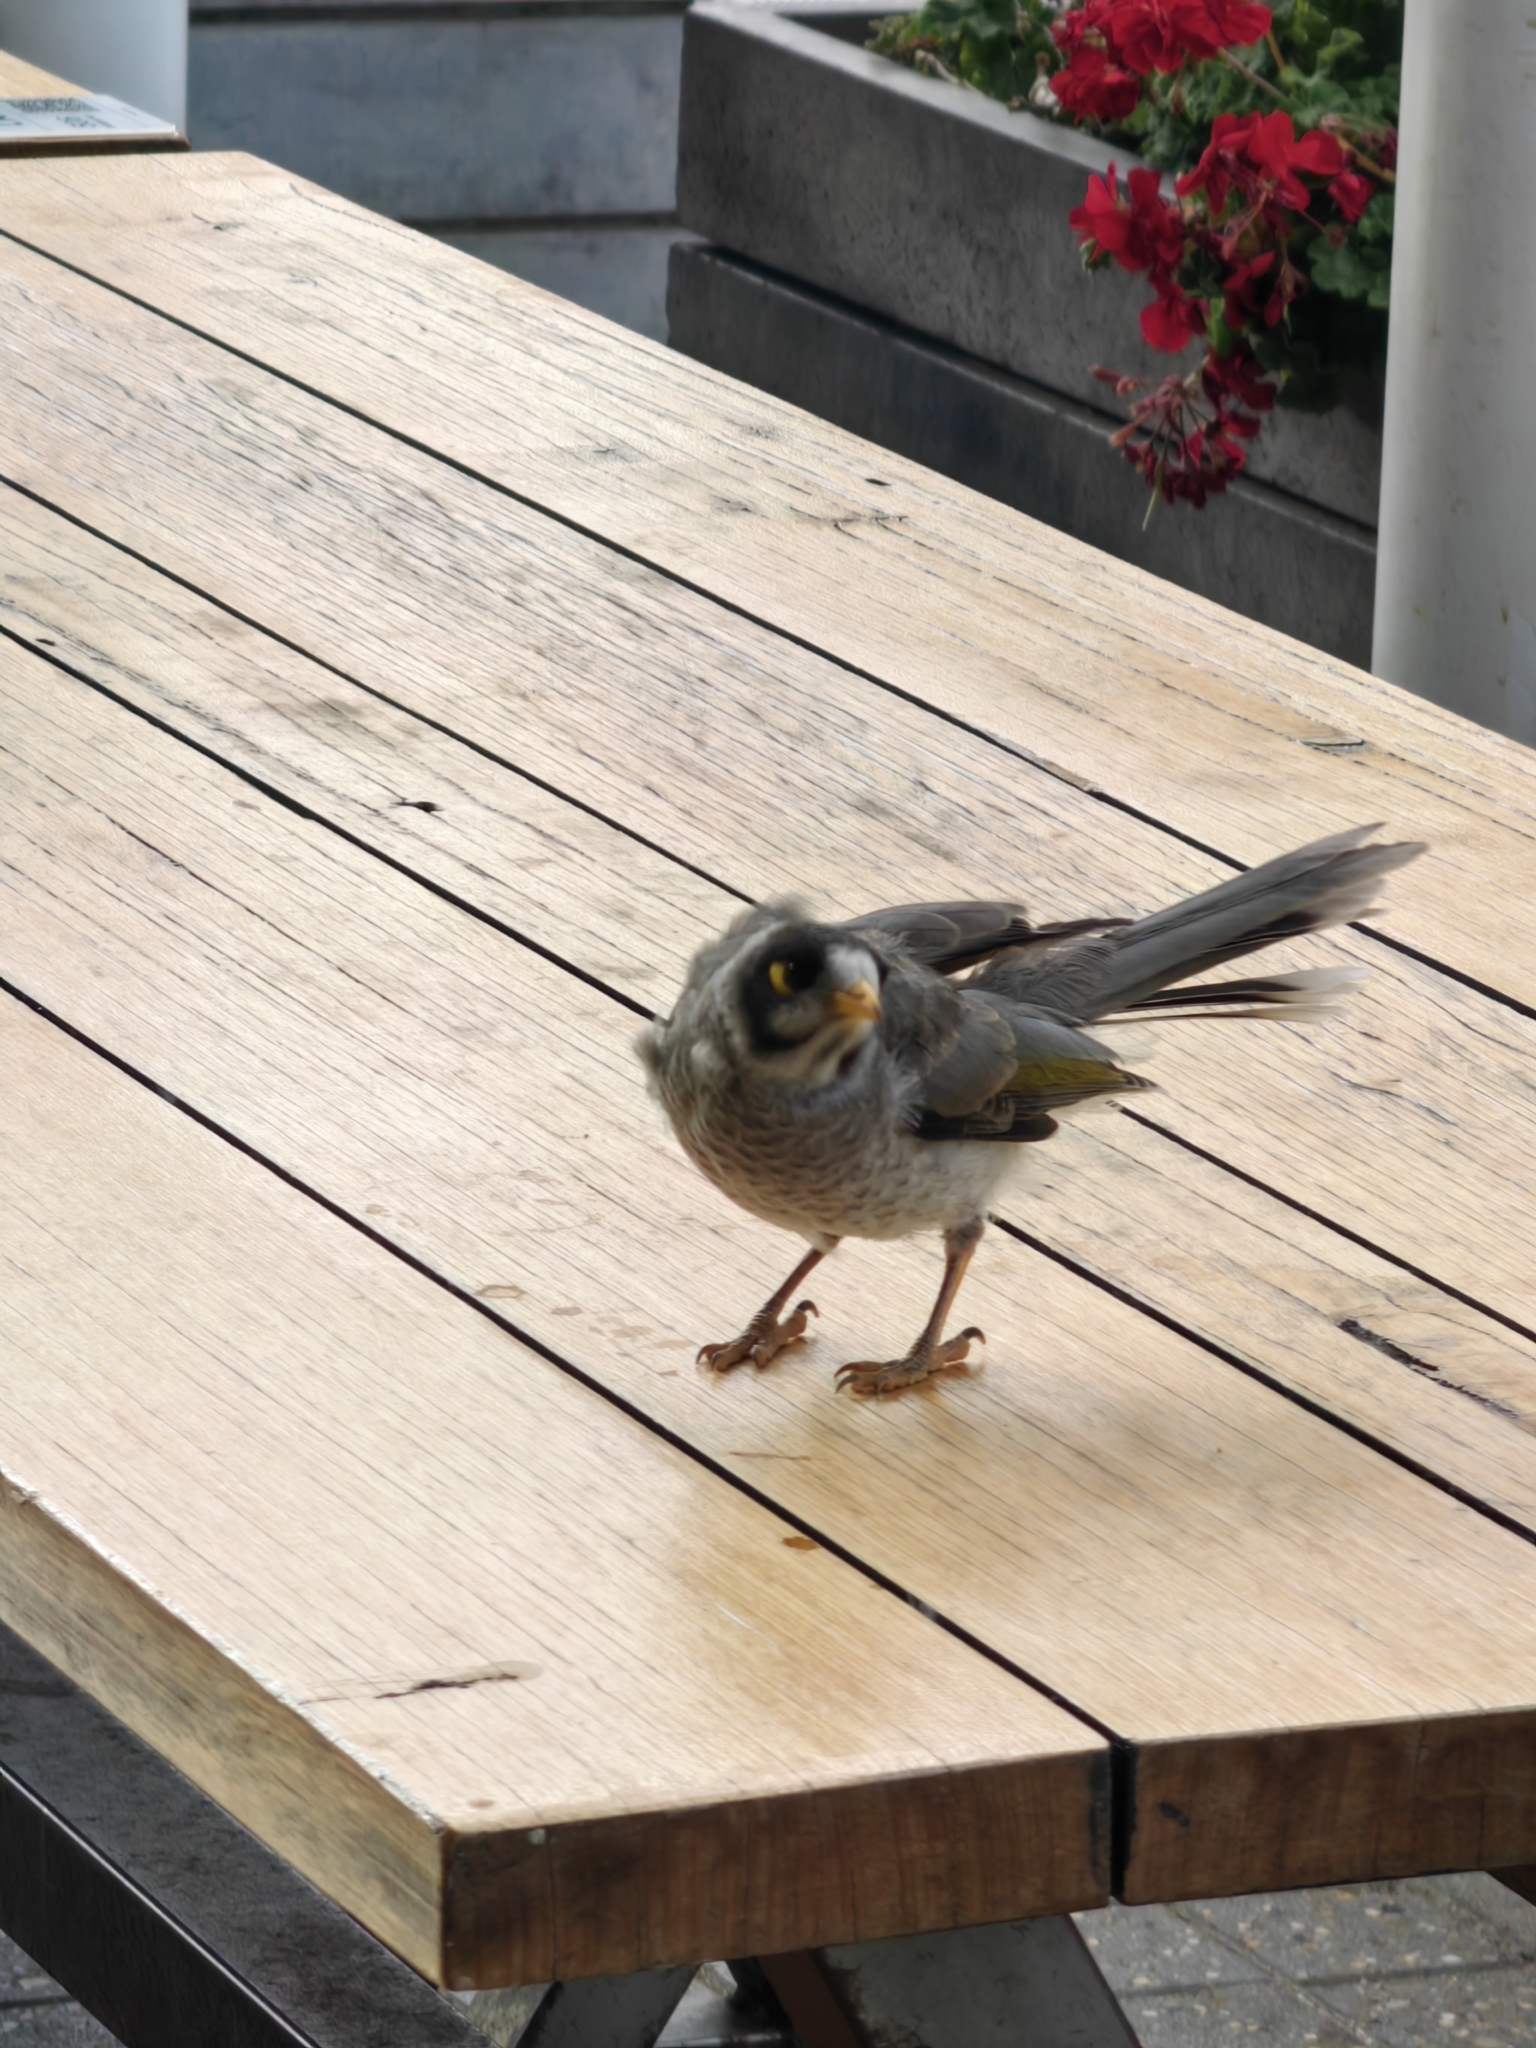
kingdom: Animalia
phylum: Chordata
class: Aves
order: Passeriformes
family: Meliphagidae
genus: Manorina
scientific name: Manorina melanocephala
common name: Noisy miner
